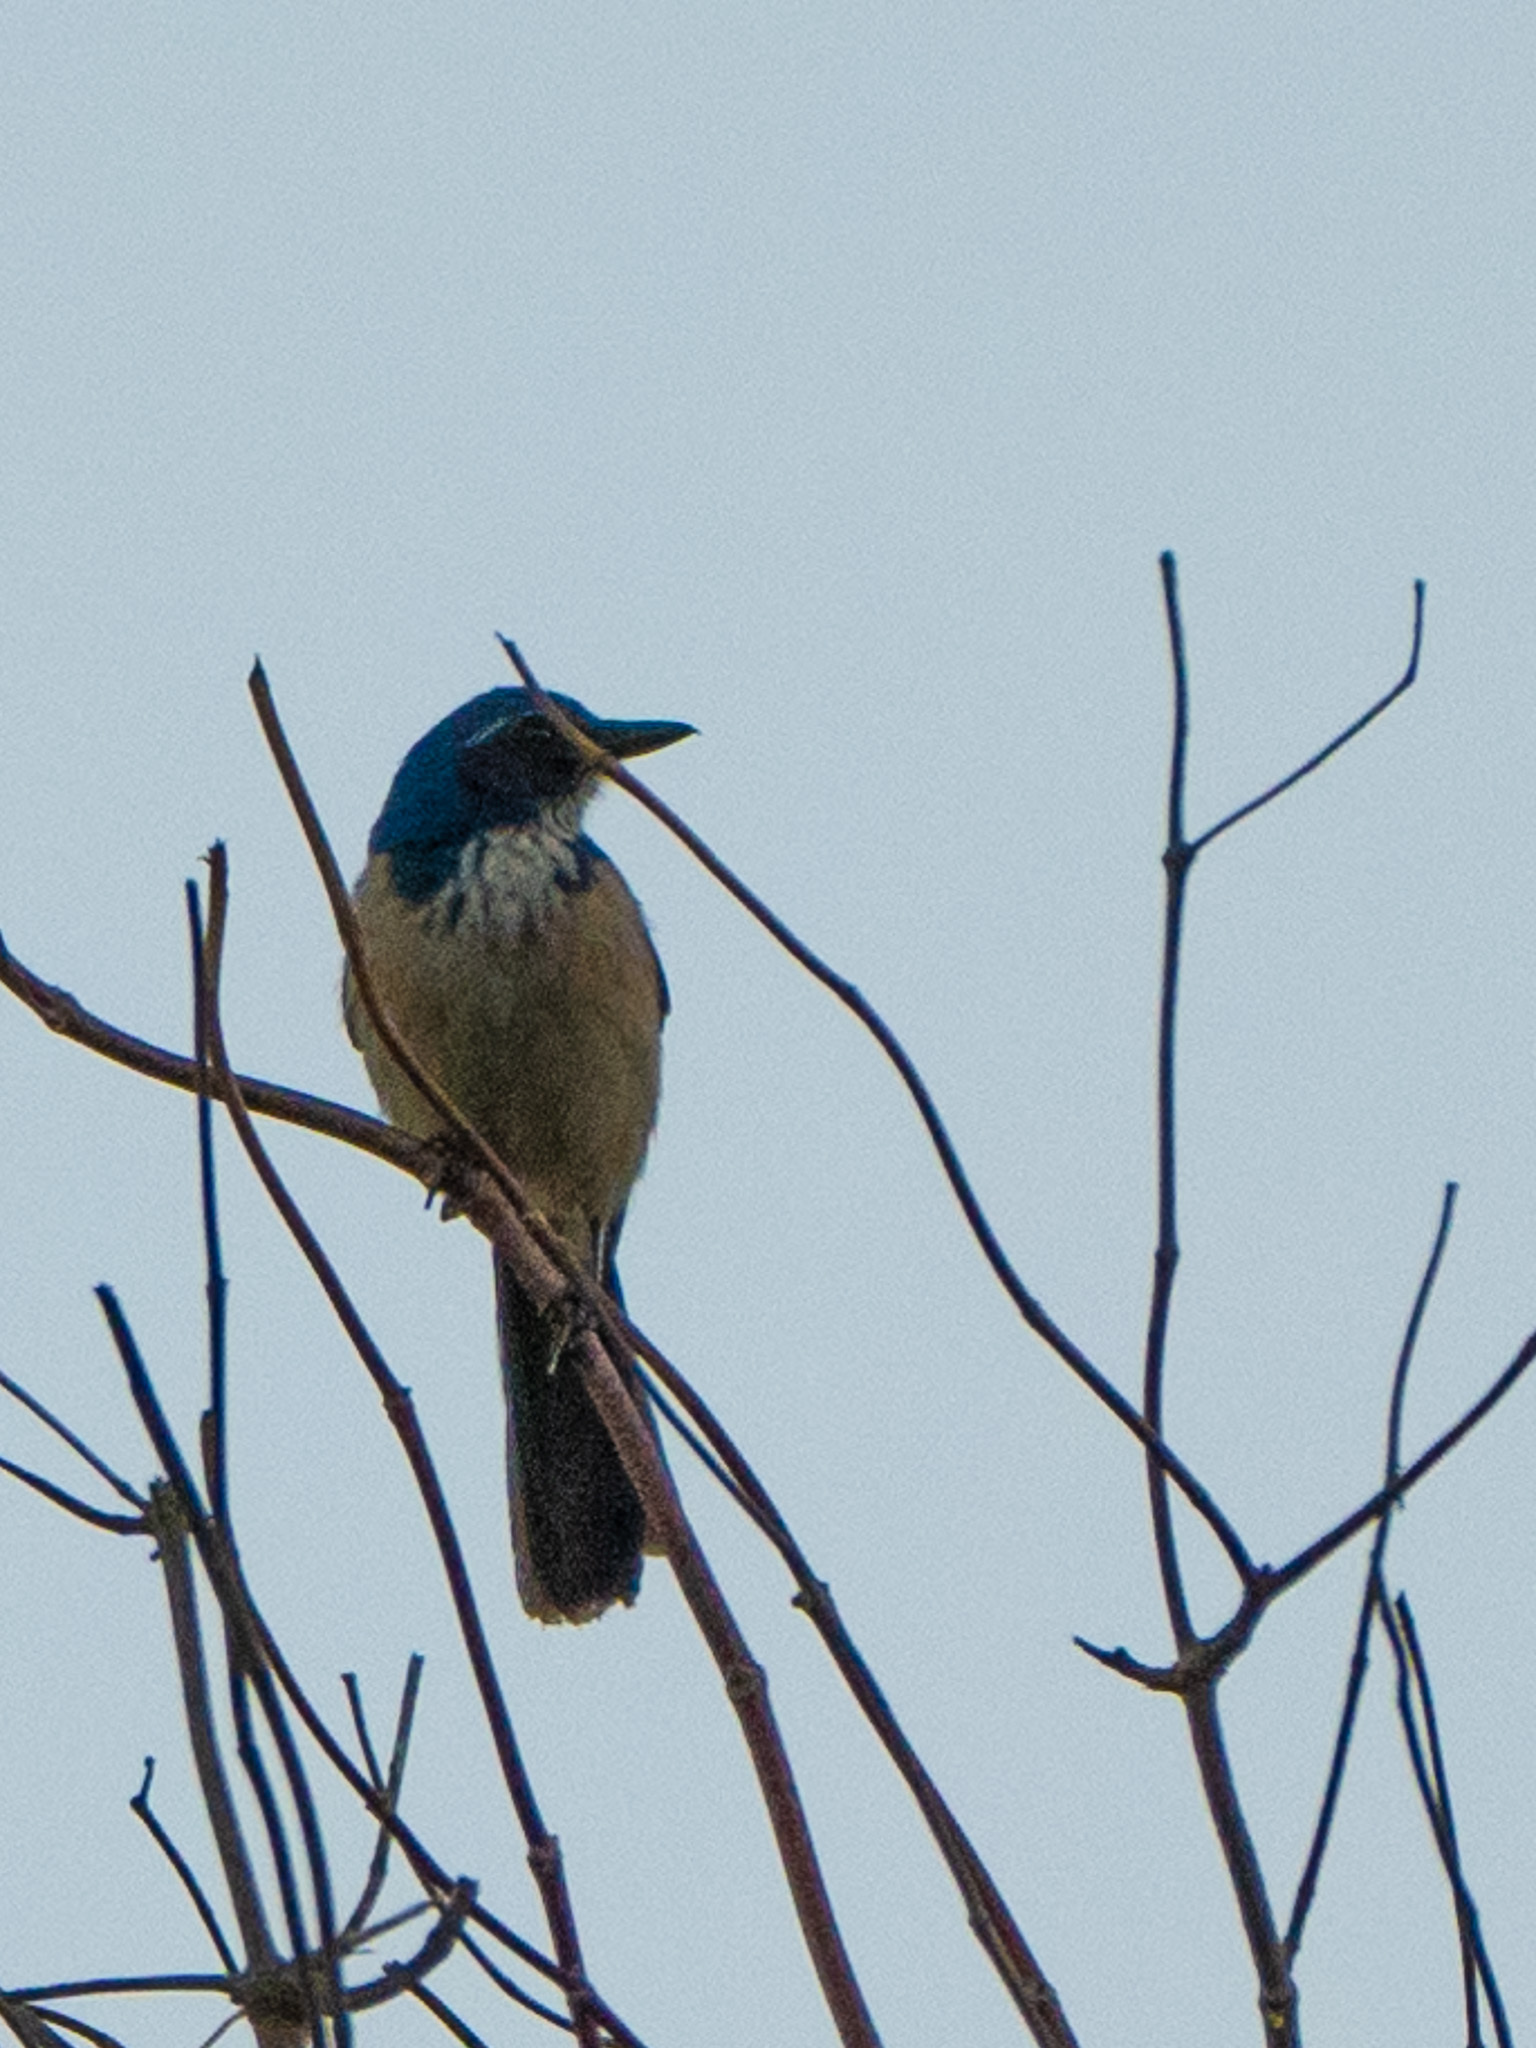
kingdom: Animalia
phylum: Chordata
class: Aves
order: Passeriformes
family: Corvidae
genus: Aphelocoma
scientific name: Aphelocoma californica
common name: California scrub-jay
